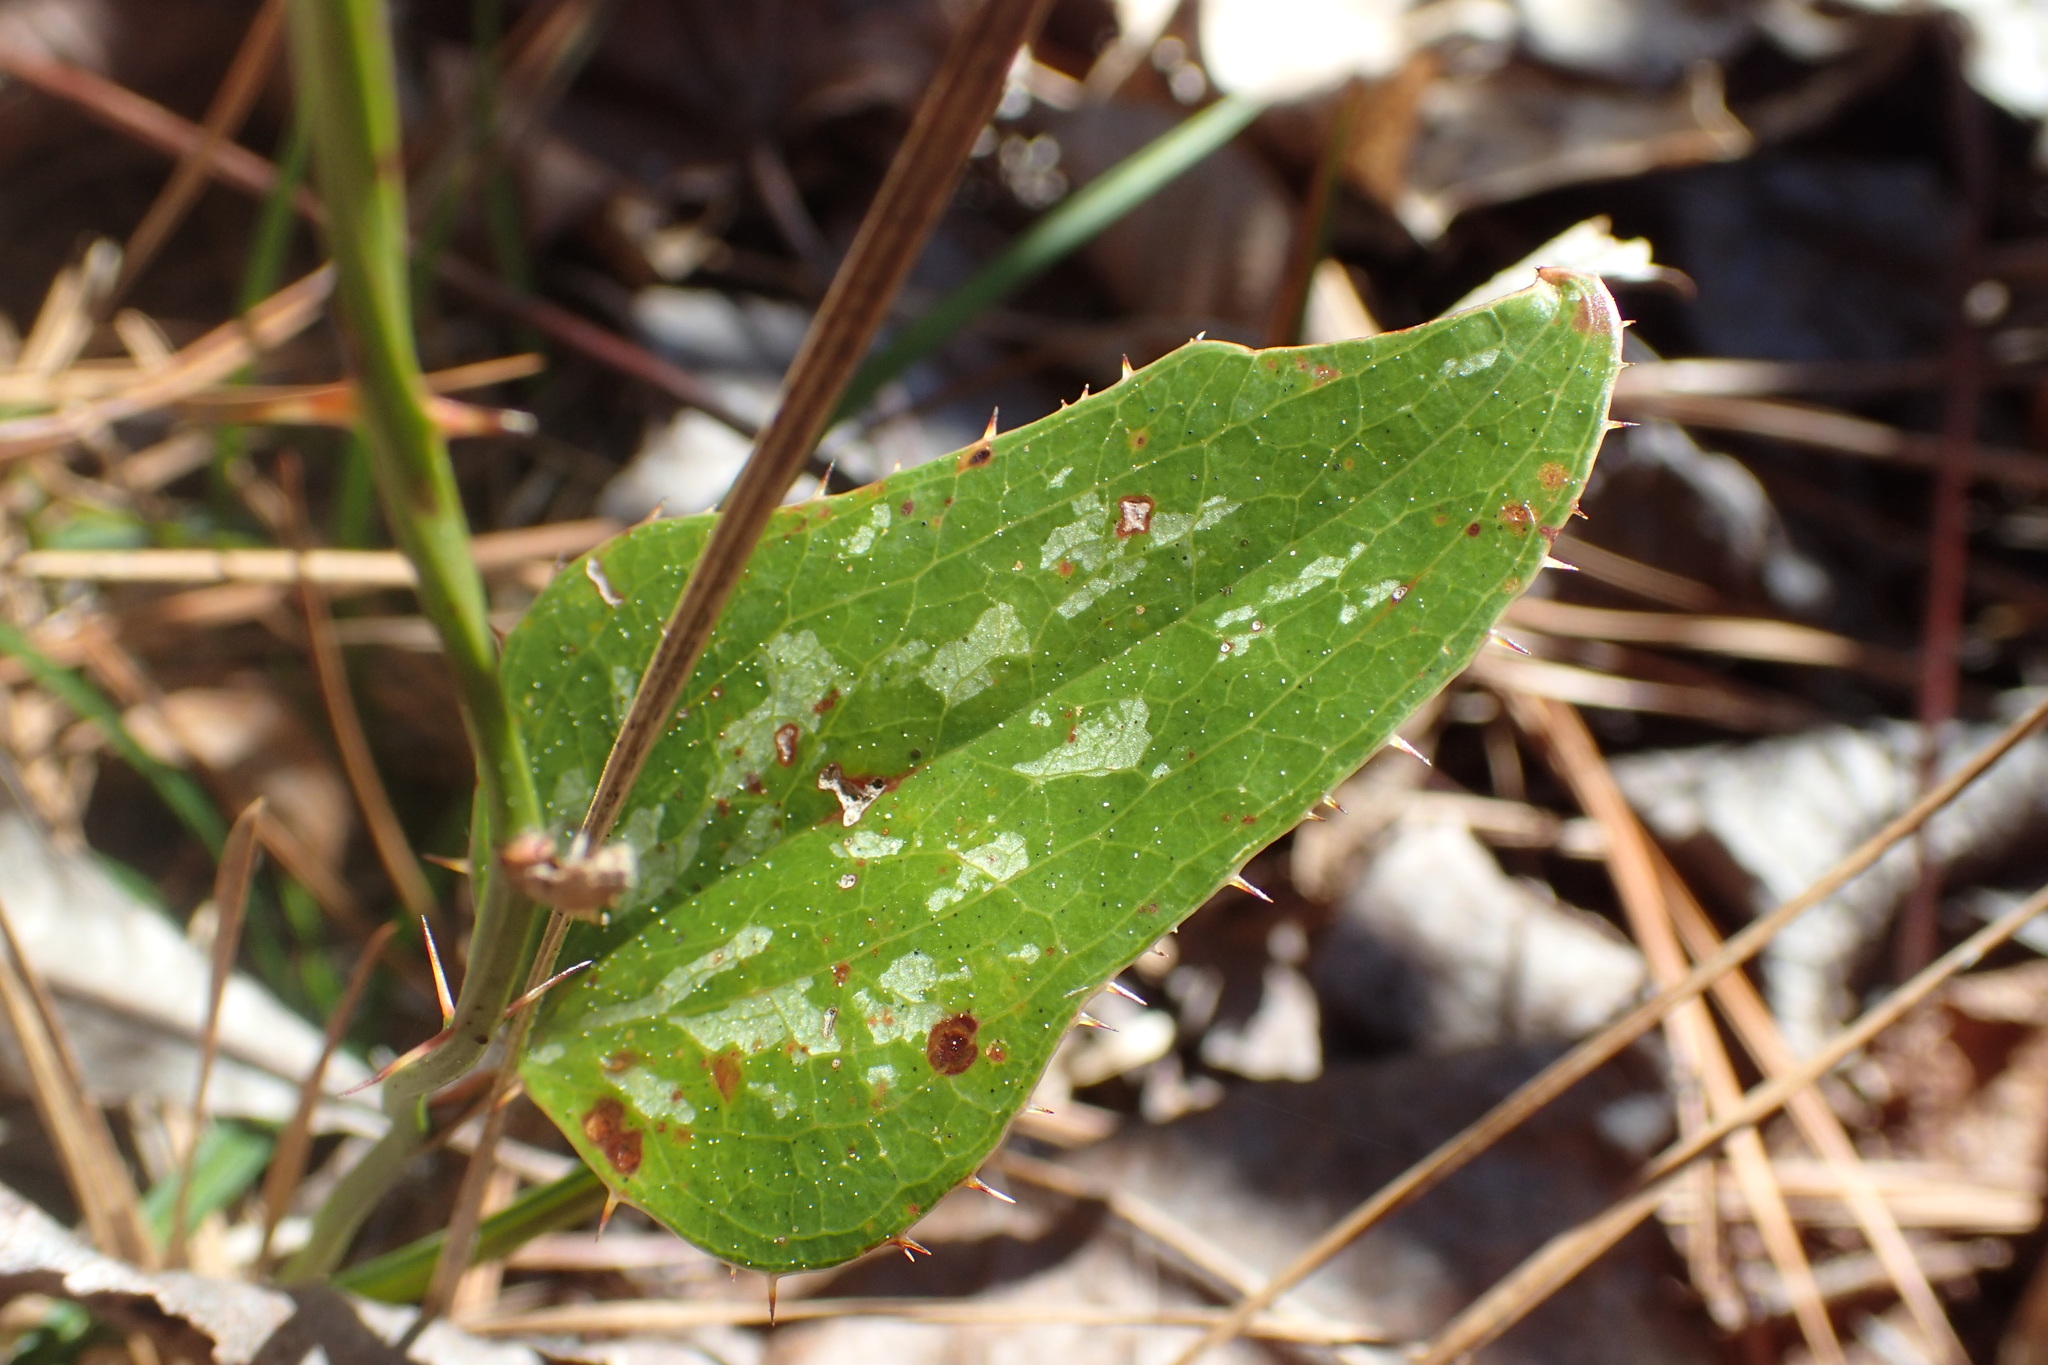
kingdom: Plantae
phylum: Tracheophyta
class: Liliopsida
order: Liliales
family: Smilacaceae
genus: Smilax
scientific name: Smilax bona-nox
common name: Catbrier
